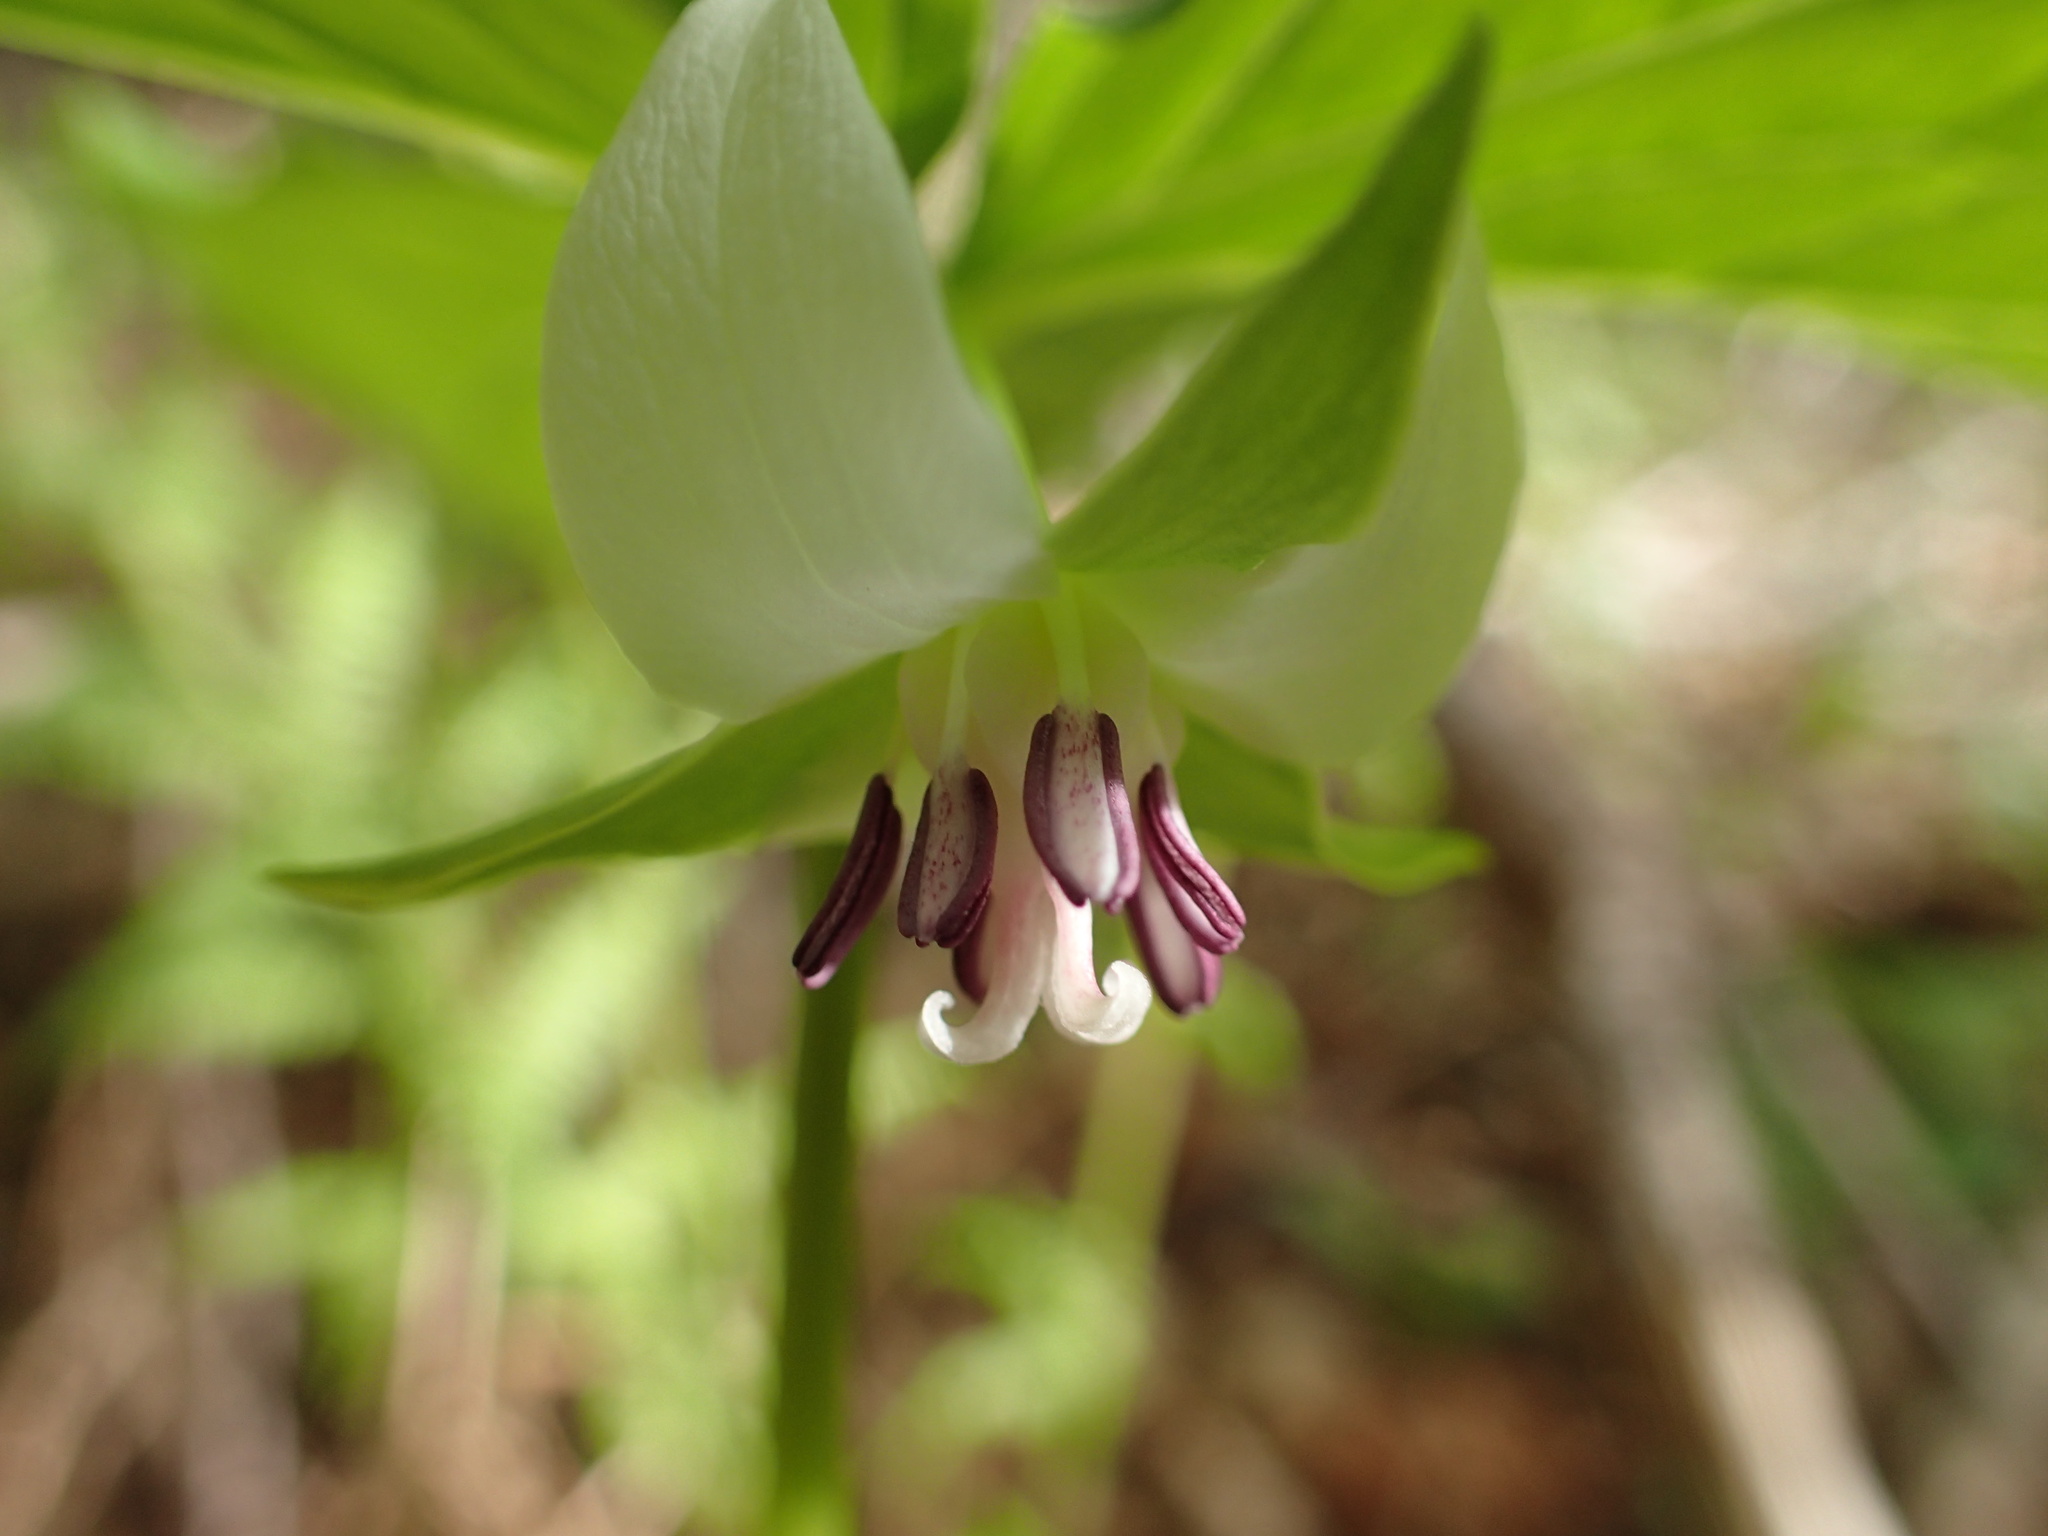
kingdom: Plantae
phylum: Tracheophyta
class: Liliopsida
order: Liliales
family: Melanthiaceae
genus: Trillium
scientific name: Trillium cernuum
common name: Nodding trillium
